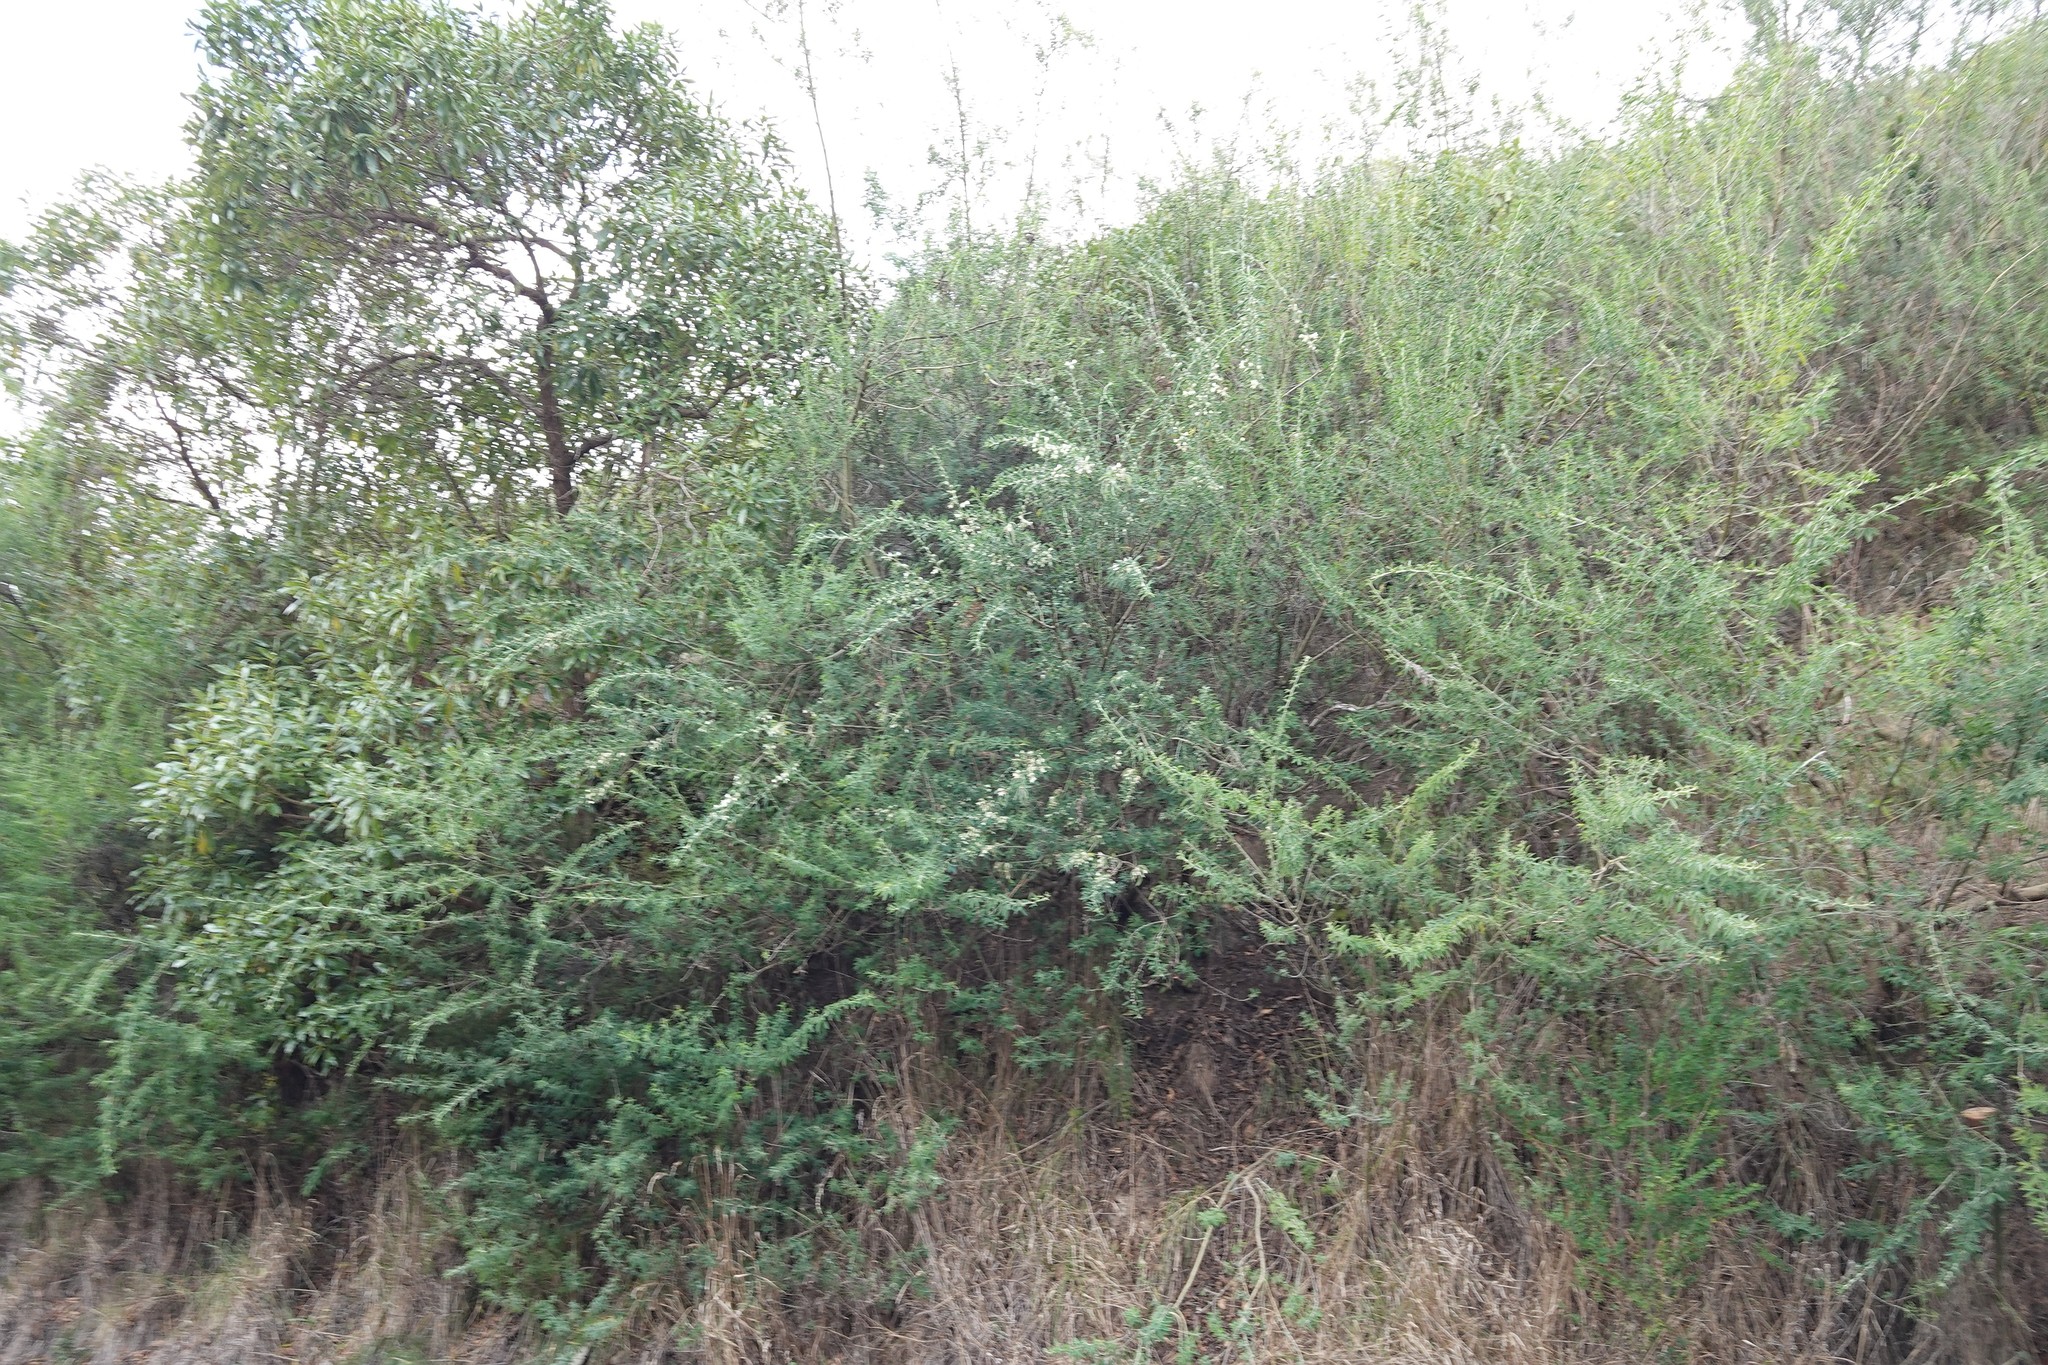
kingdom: Plantae
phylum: Tracheophyta
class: Magnoliopsida
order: Fabales
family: Fabaceae
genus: Chamaecytisus
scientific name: Chamaecytisus prolifer
